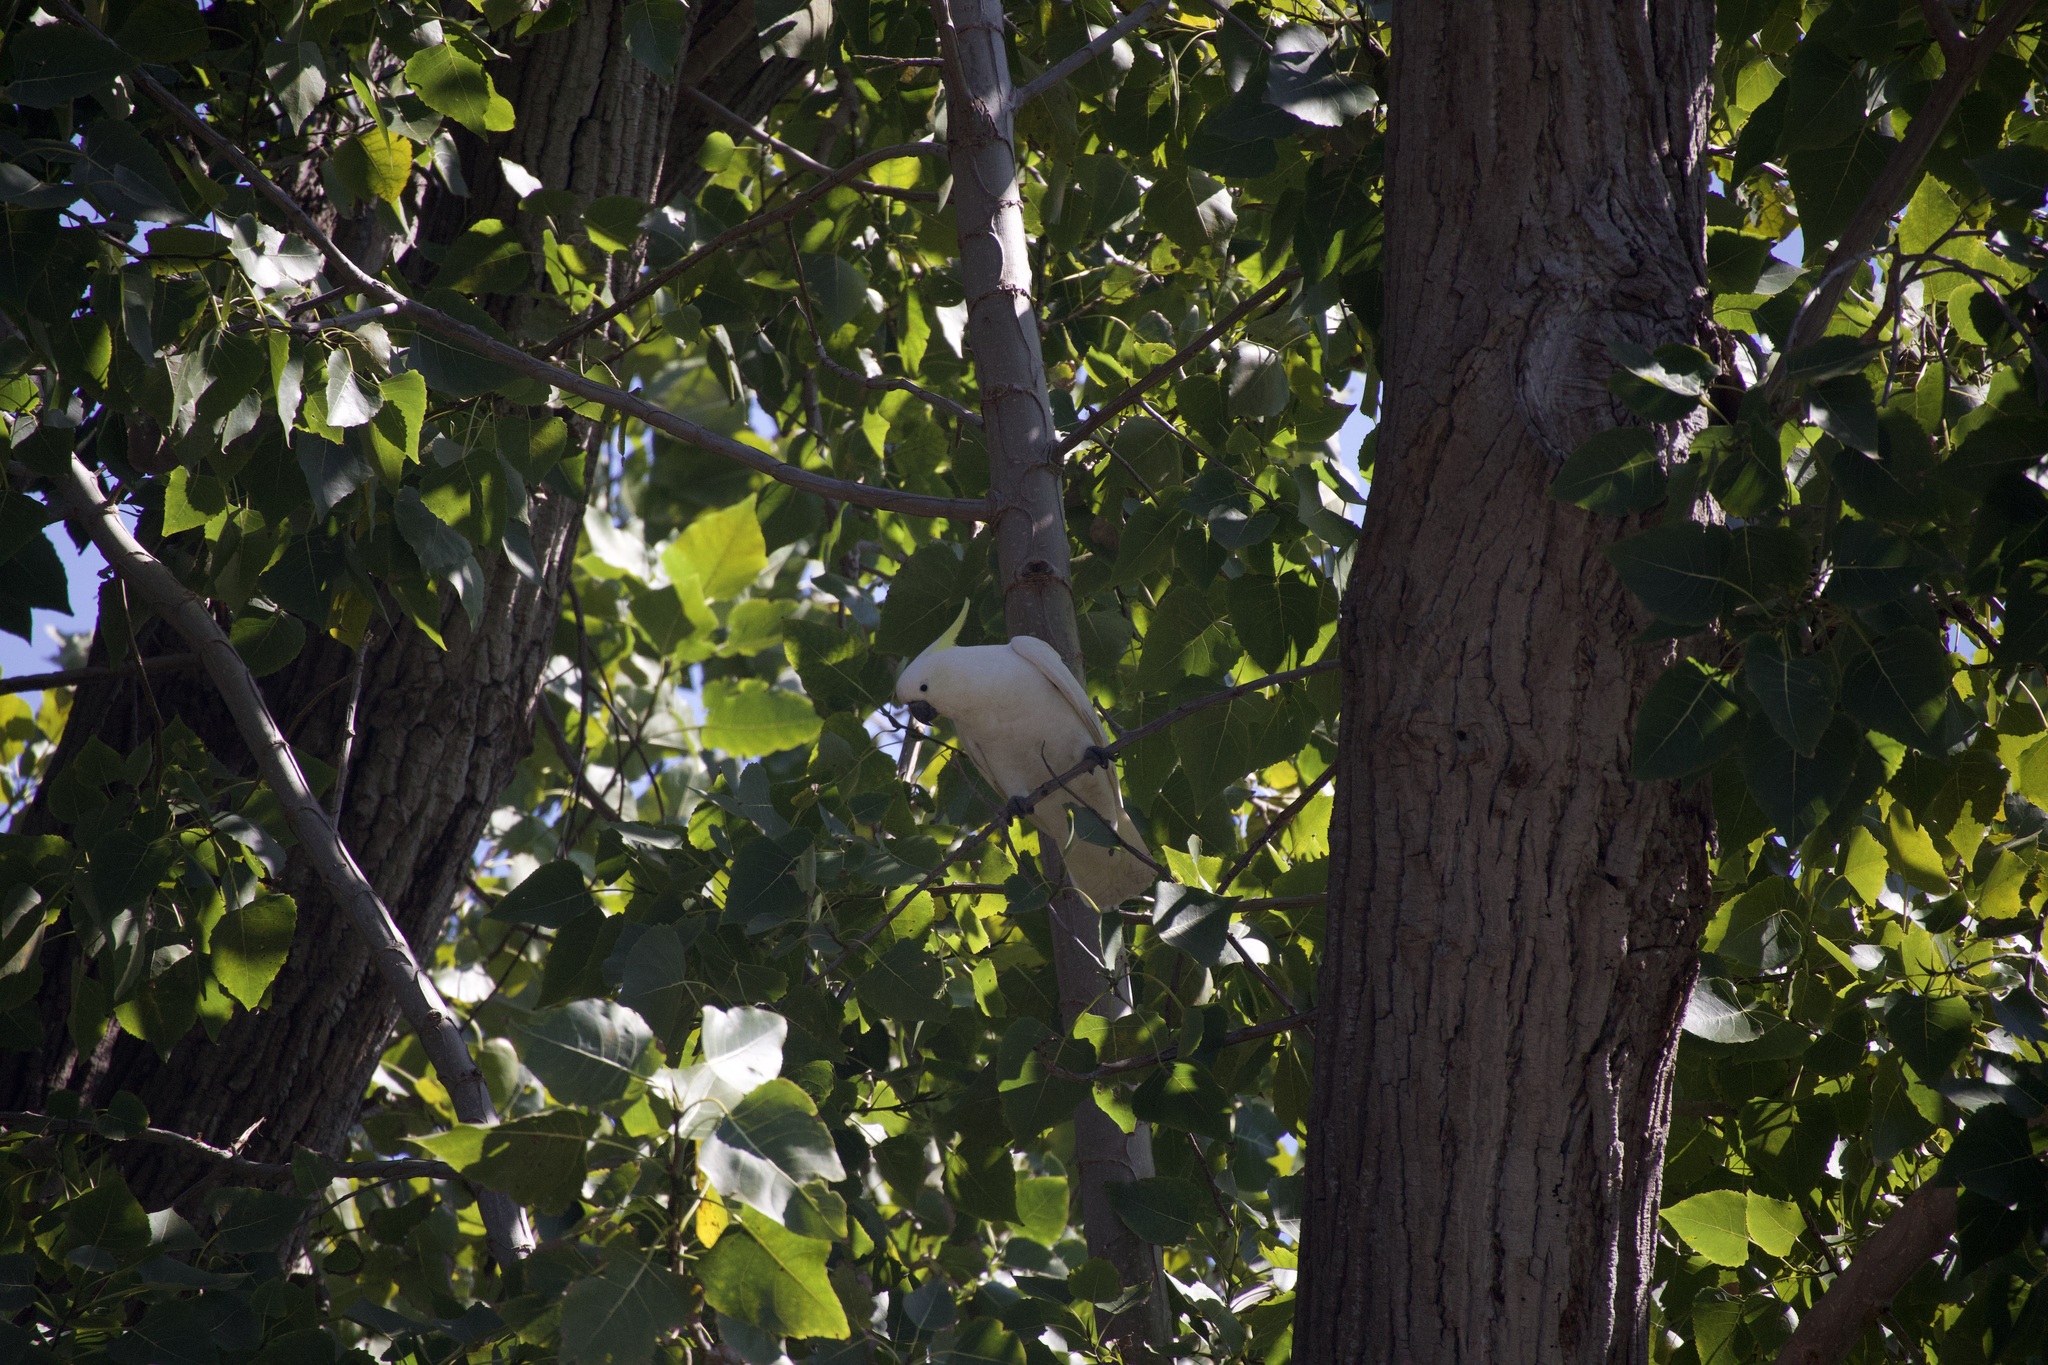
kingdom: Animalia
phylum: Chordata
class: Aves
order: Psittaciformes
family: Psittacidae
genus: Cacatua
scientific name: Cacatua galerita
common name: Sulphur-crested cockatoo
